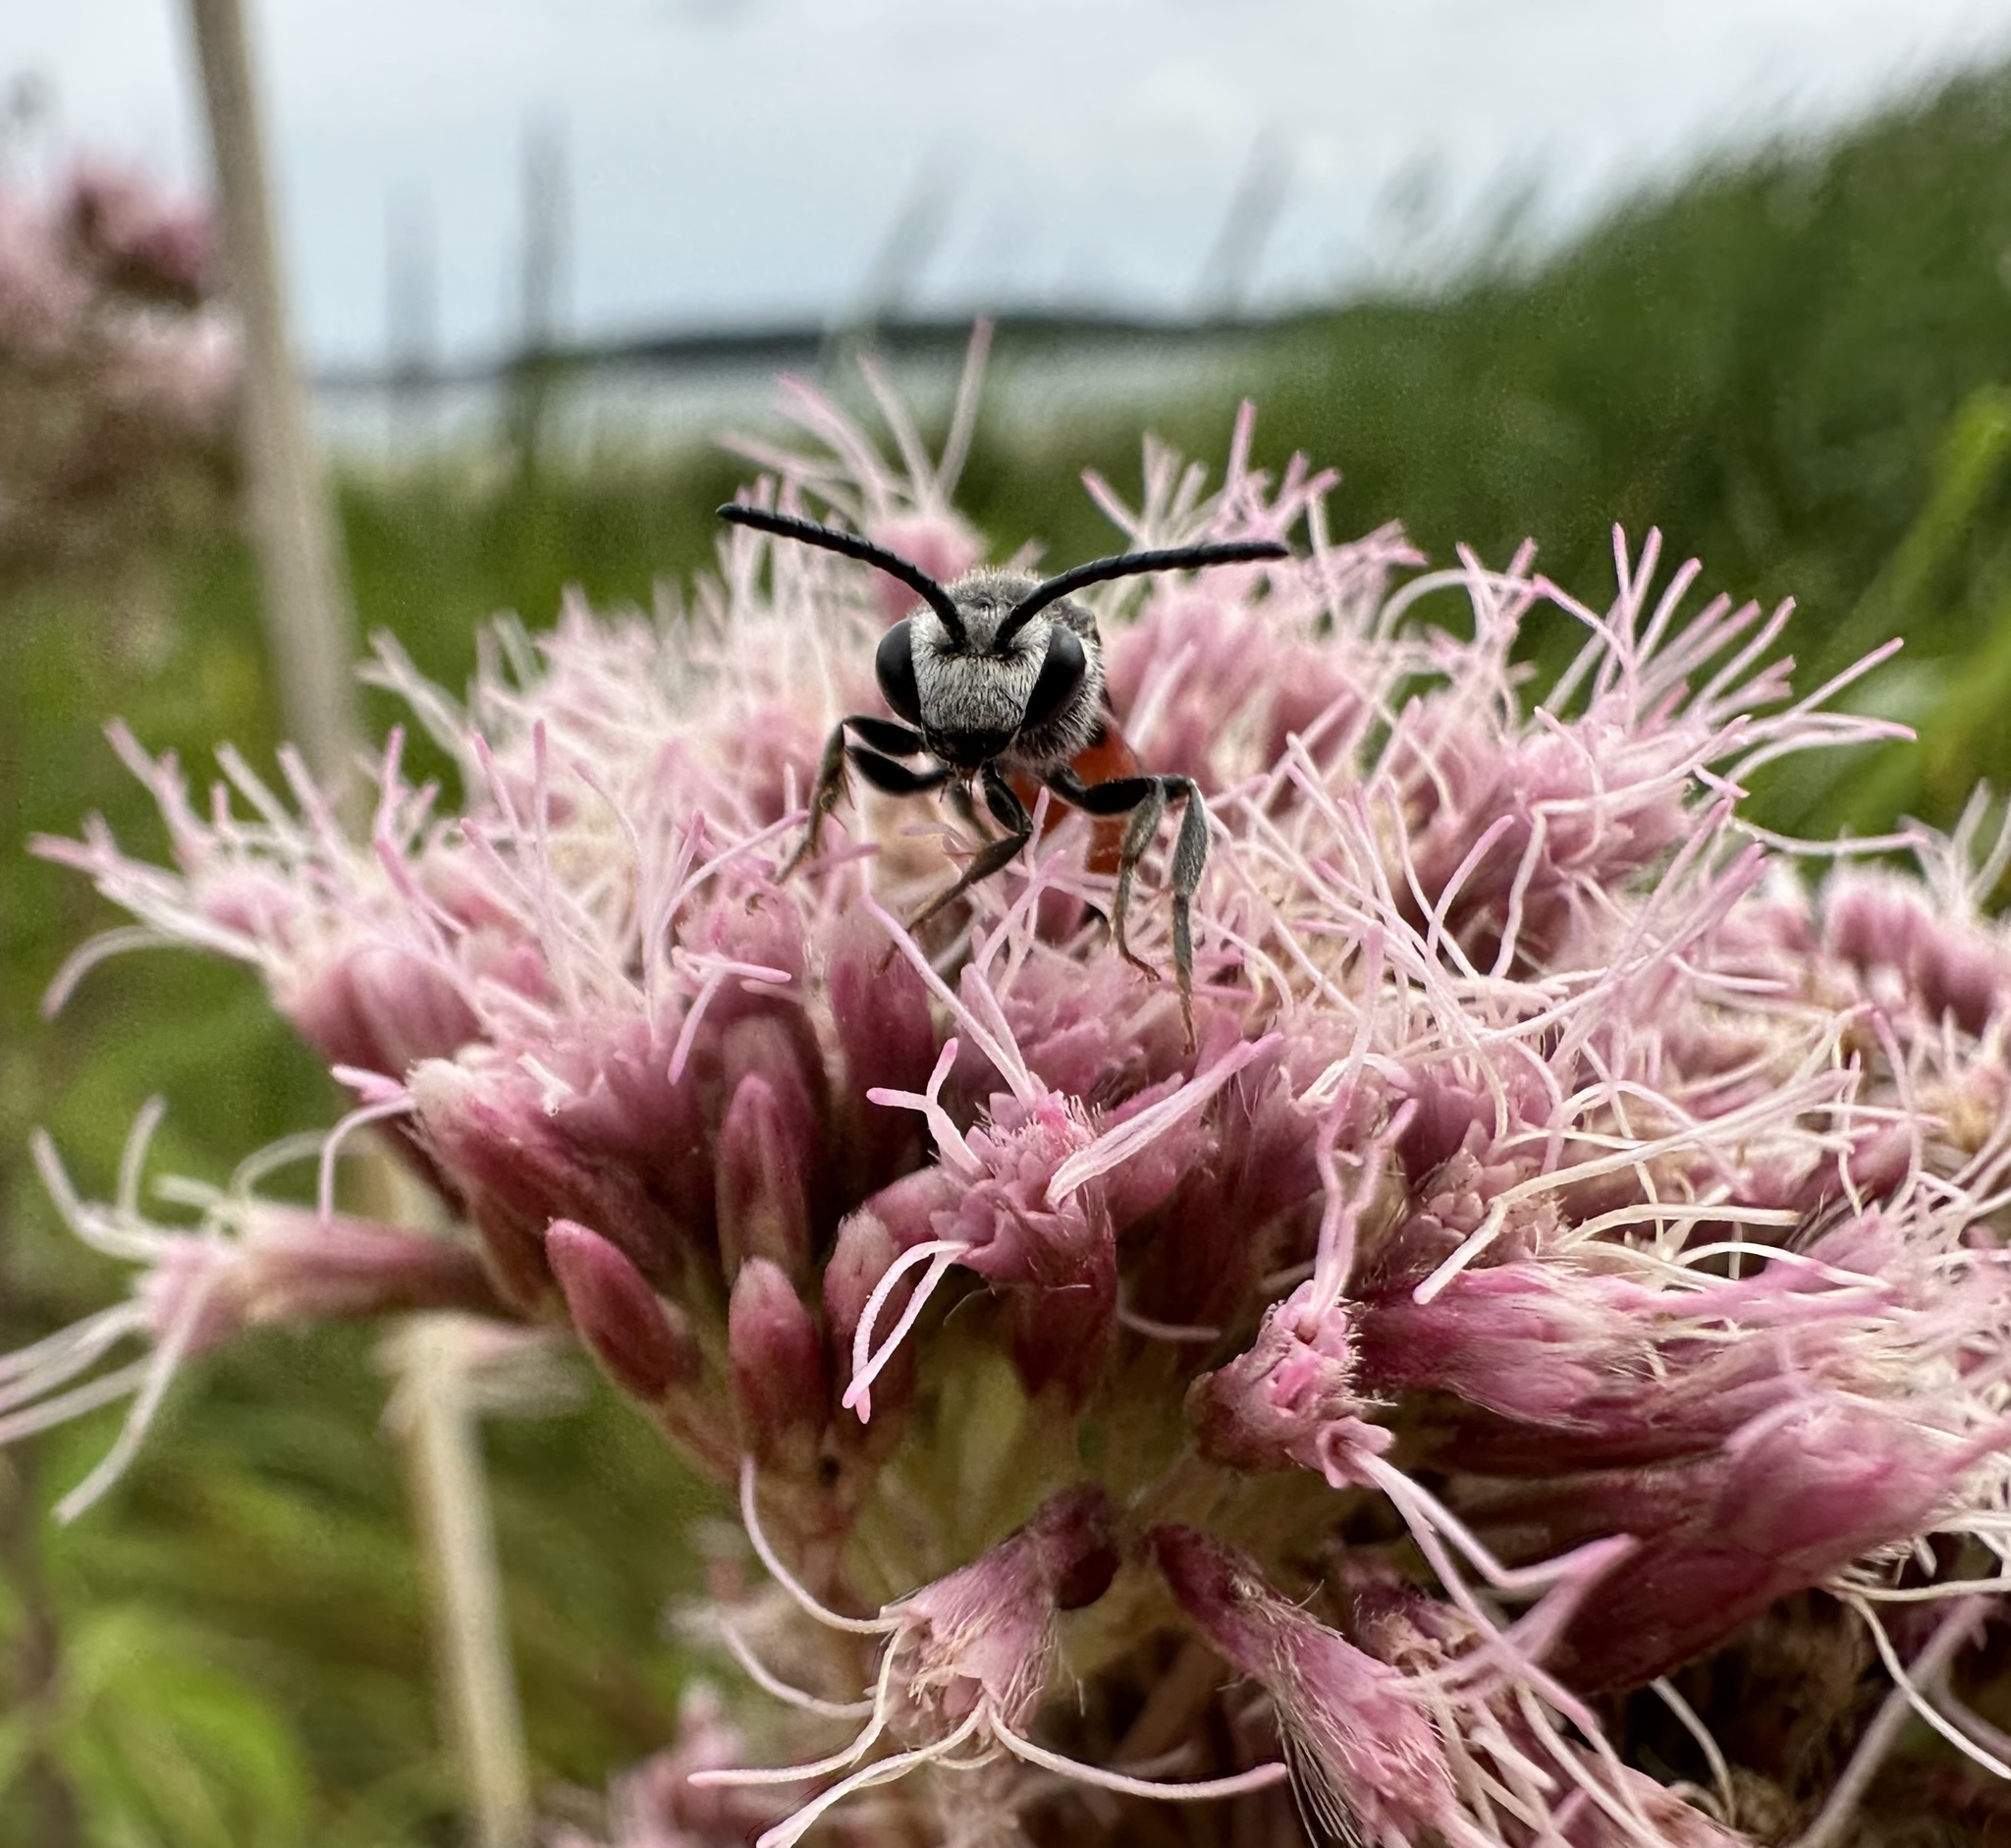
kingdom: Animalia
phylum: Arthropoda
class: Insecta
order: Hymenoptera
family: Halictidae
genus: Sphecodes
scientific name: Sphecodes albilabris
